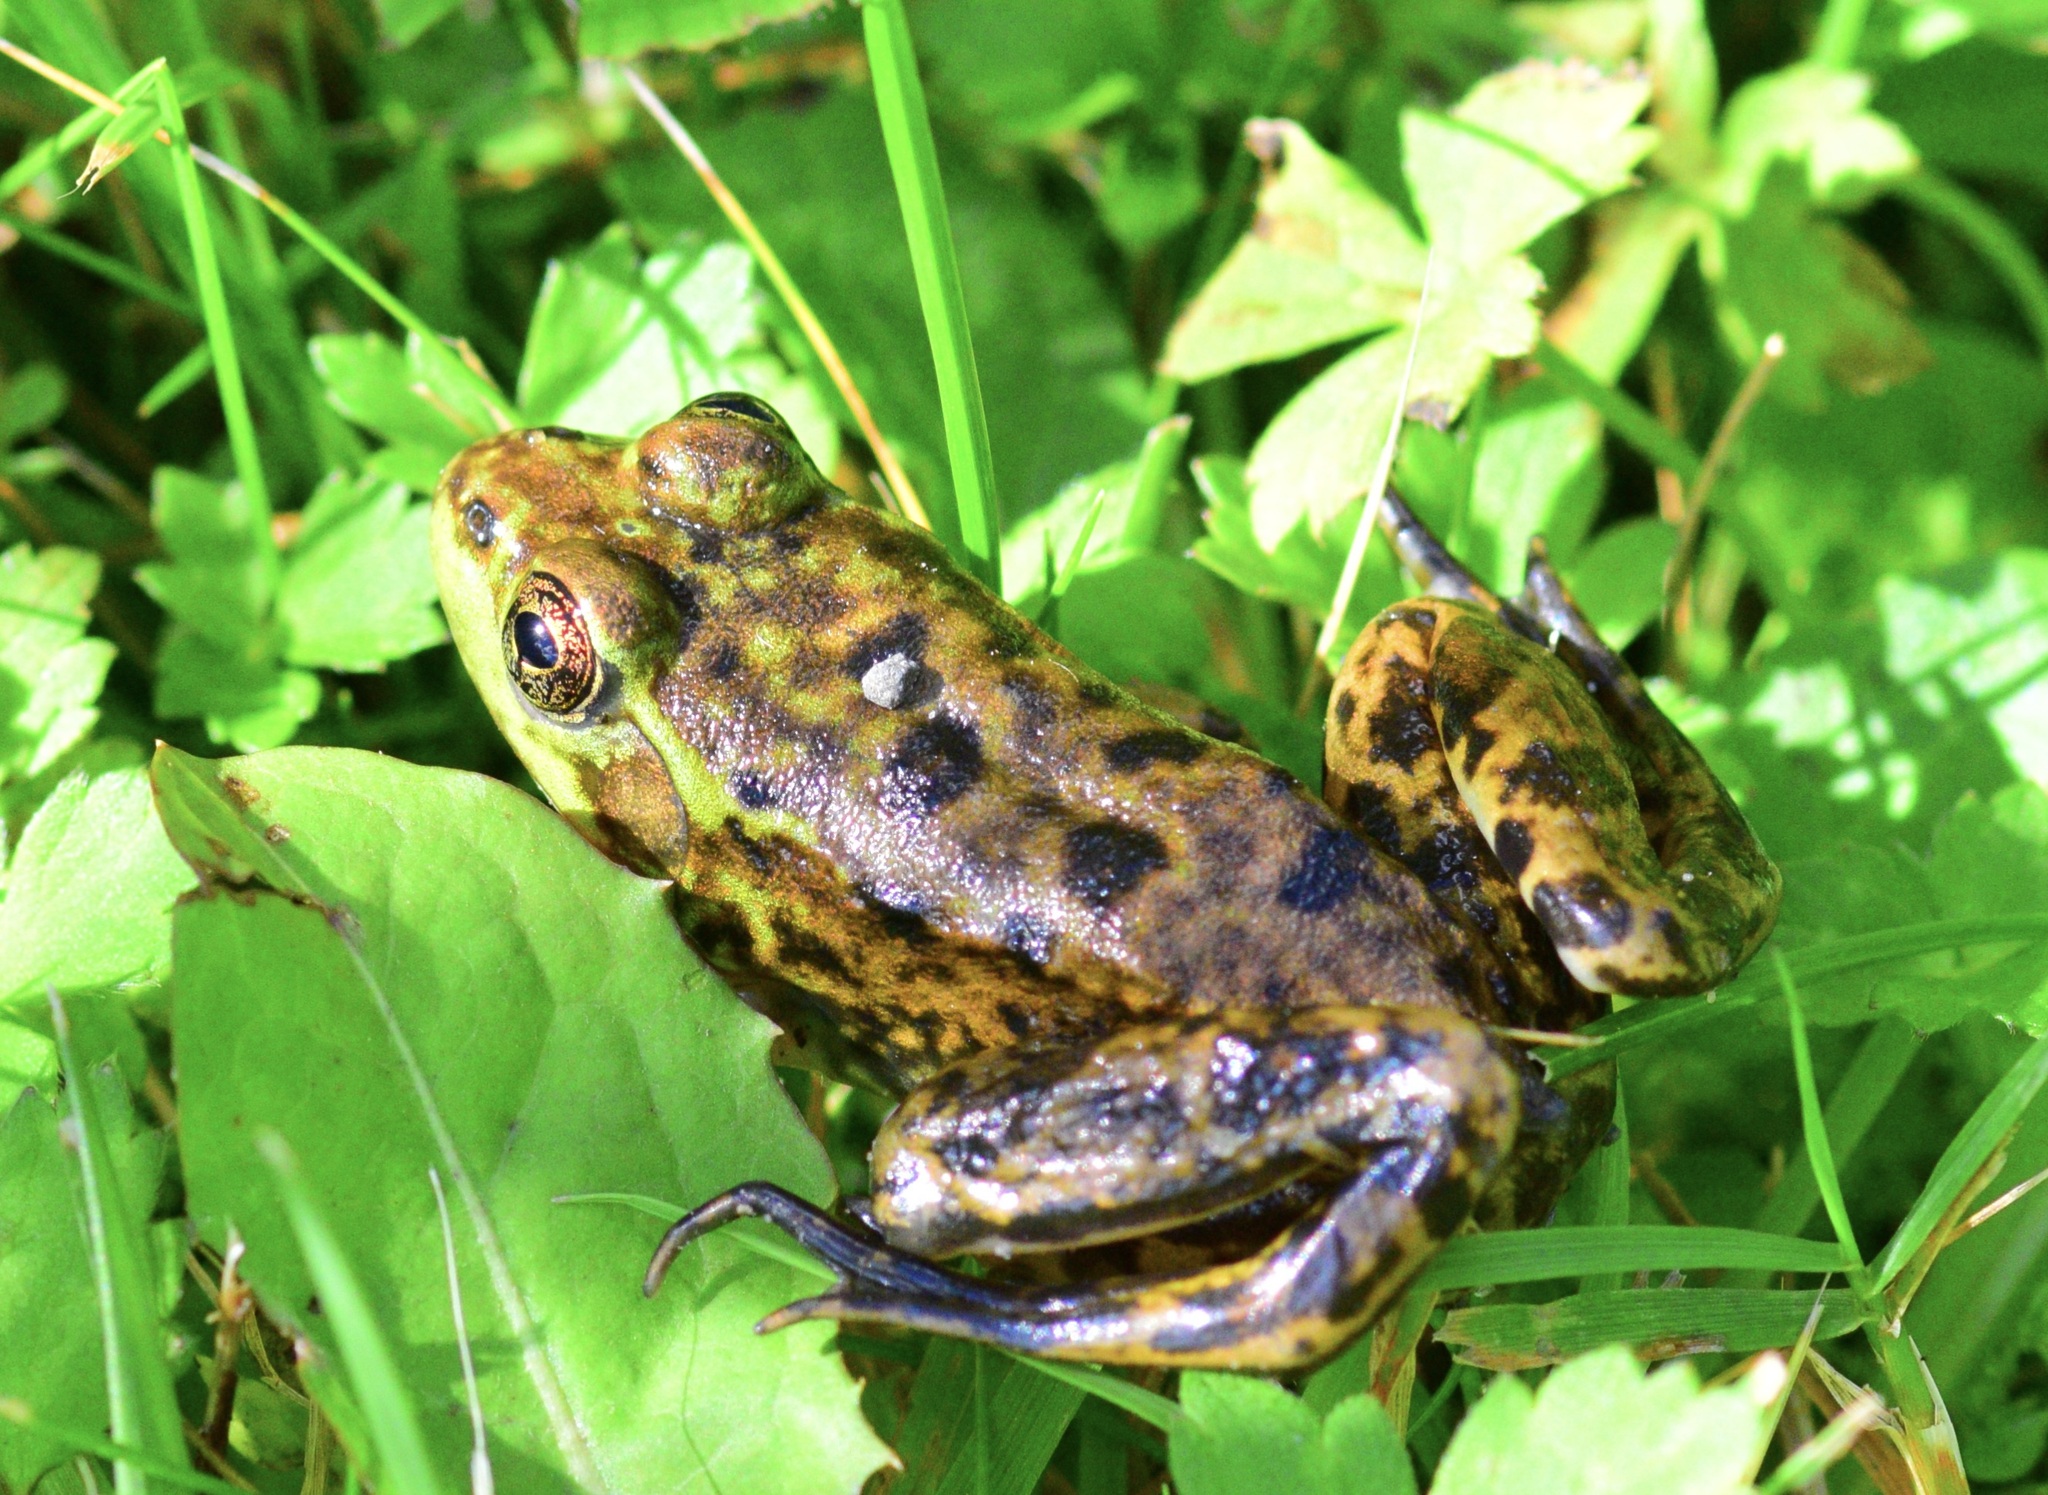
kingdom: Animalia
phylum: Chordata
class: Amphibia
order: Anura
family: Ranidae
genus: Lithobates
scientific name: Lithobates septentrionalis
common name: Mink frog
